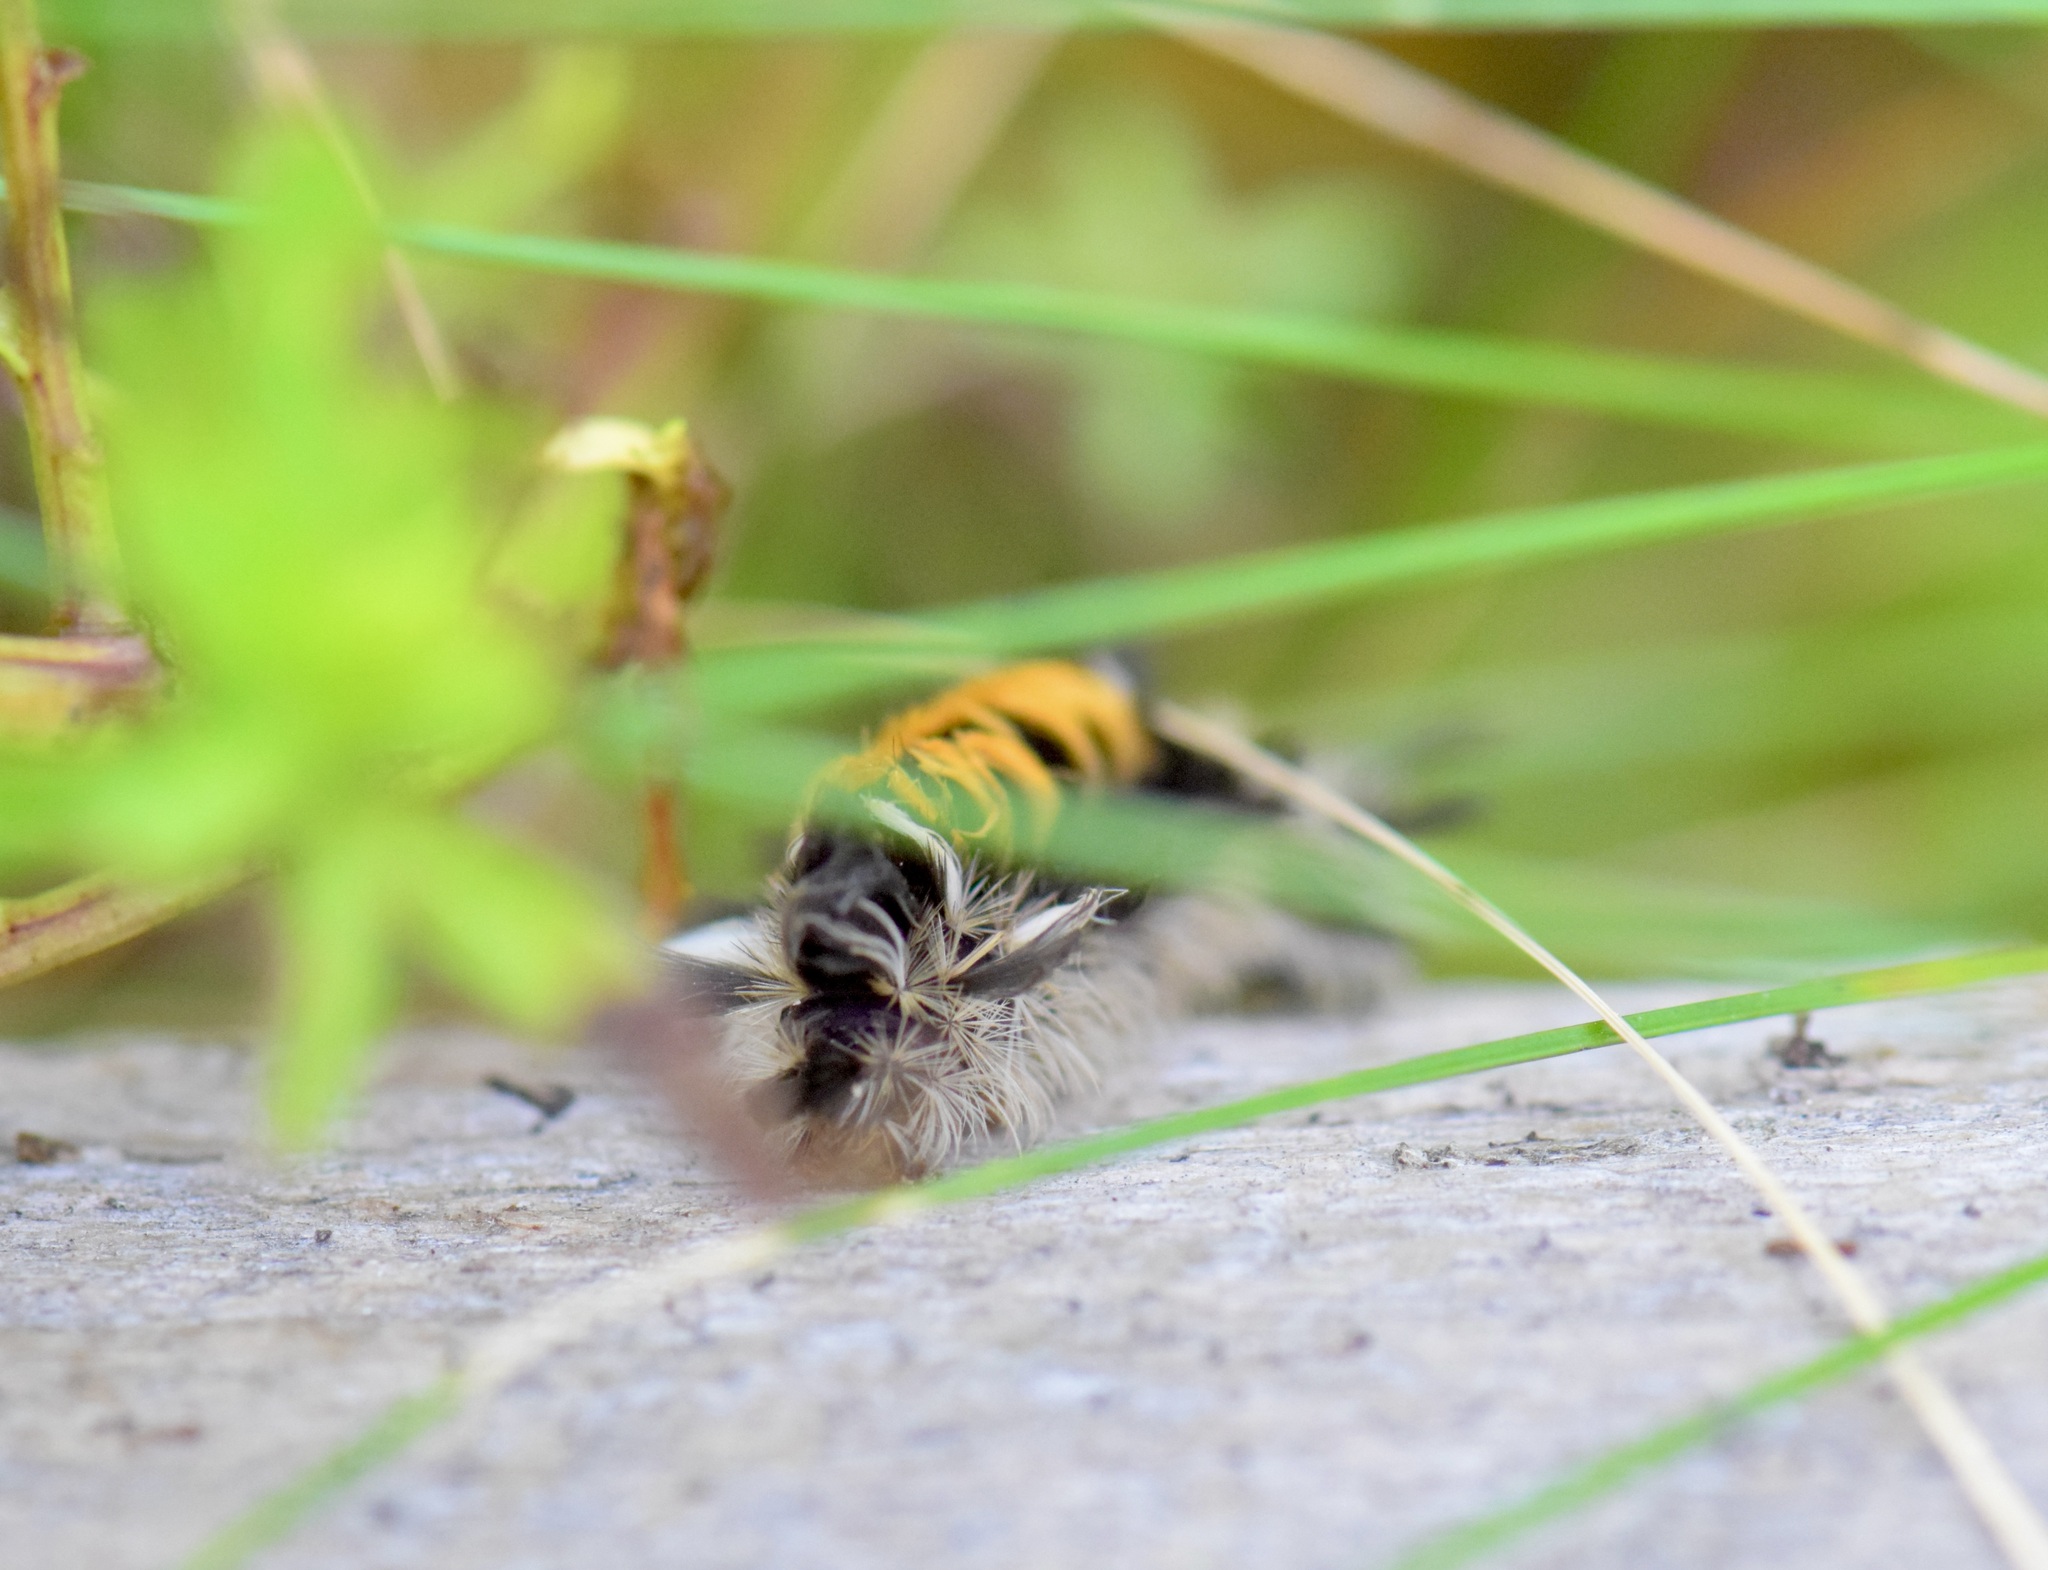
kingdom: Animalia
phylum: Arthropoda
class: Insecta
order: Lepidoptera
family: Erebidae
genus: Euchaetes
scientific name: Euchaetes egle
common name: Milkweed tussock moth
